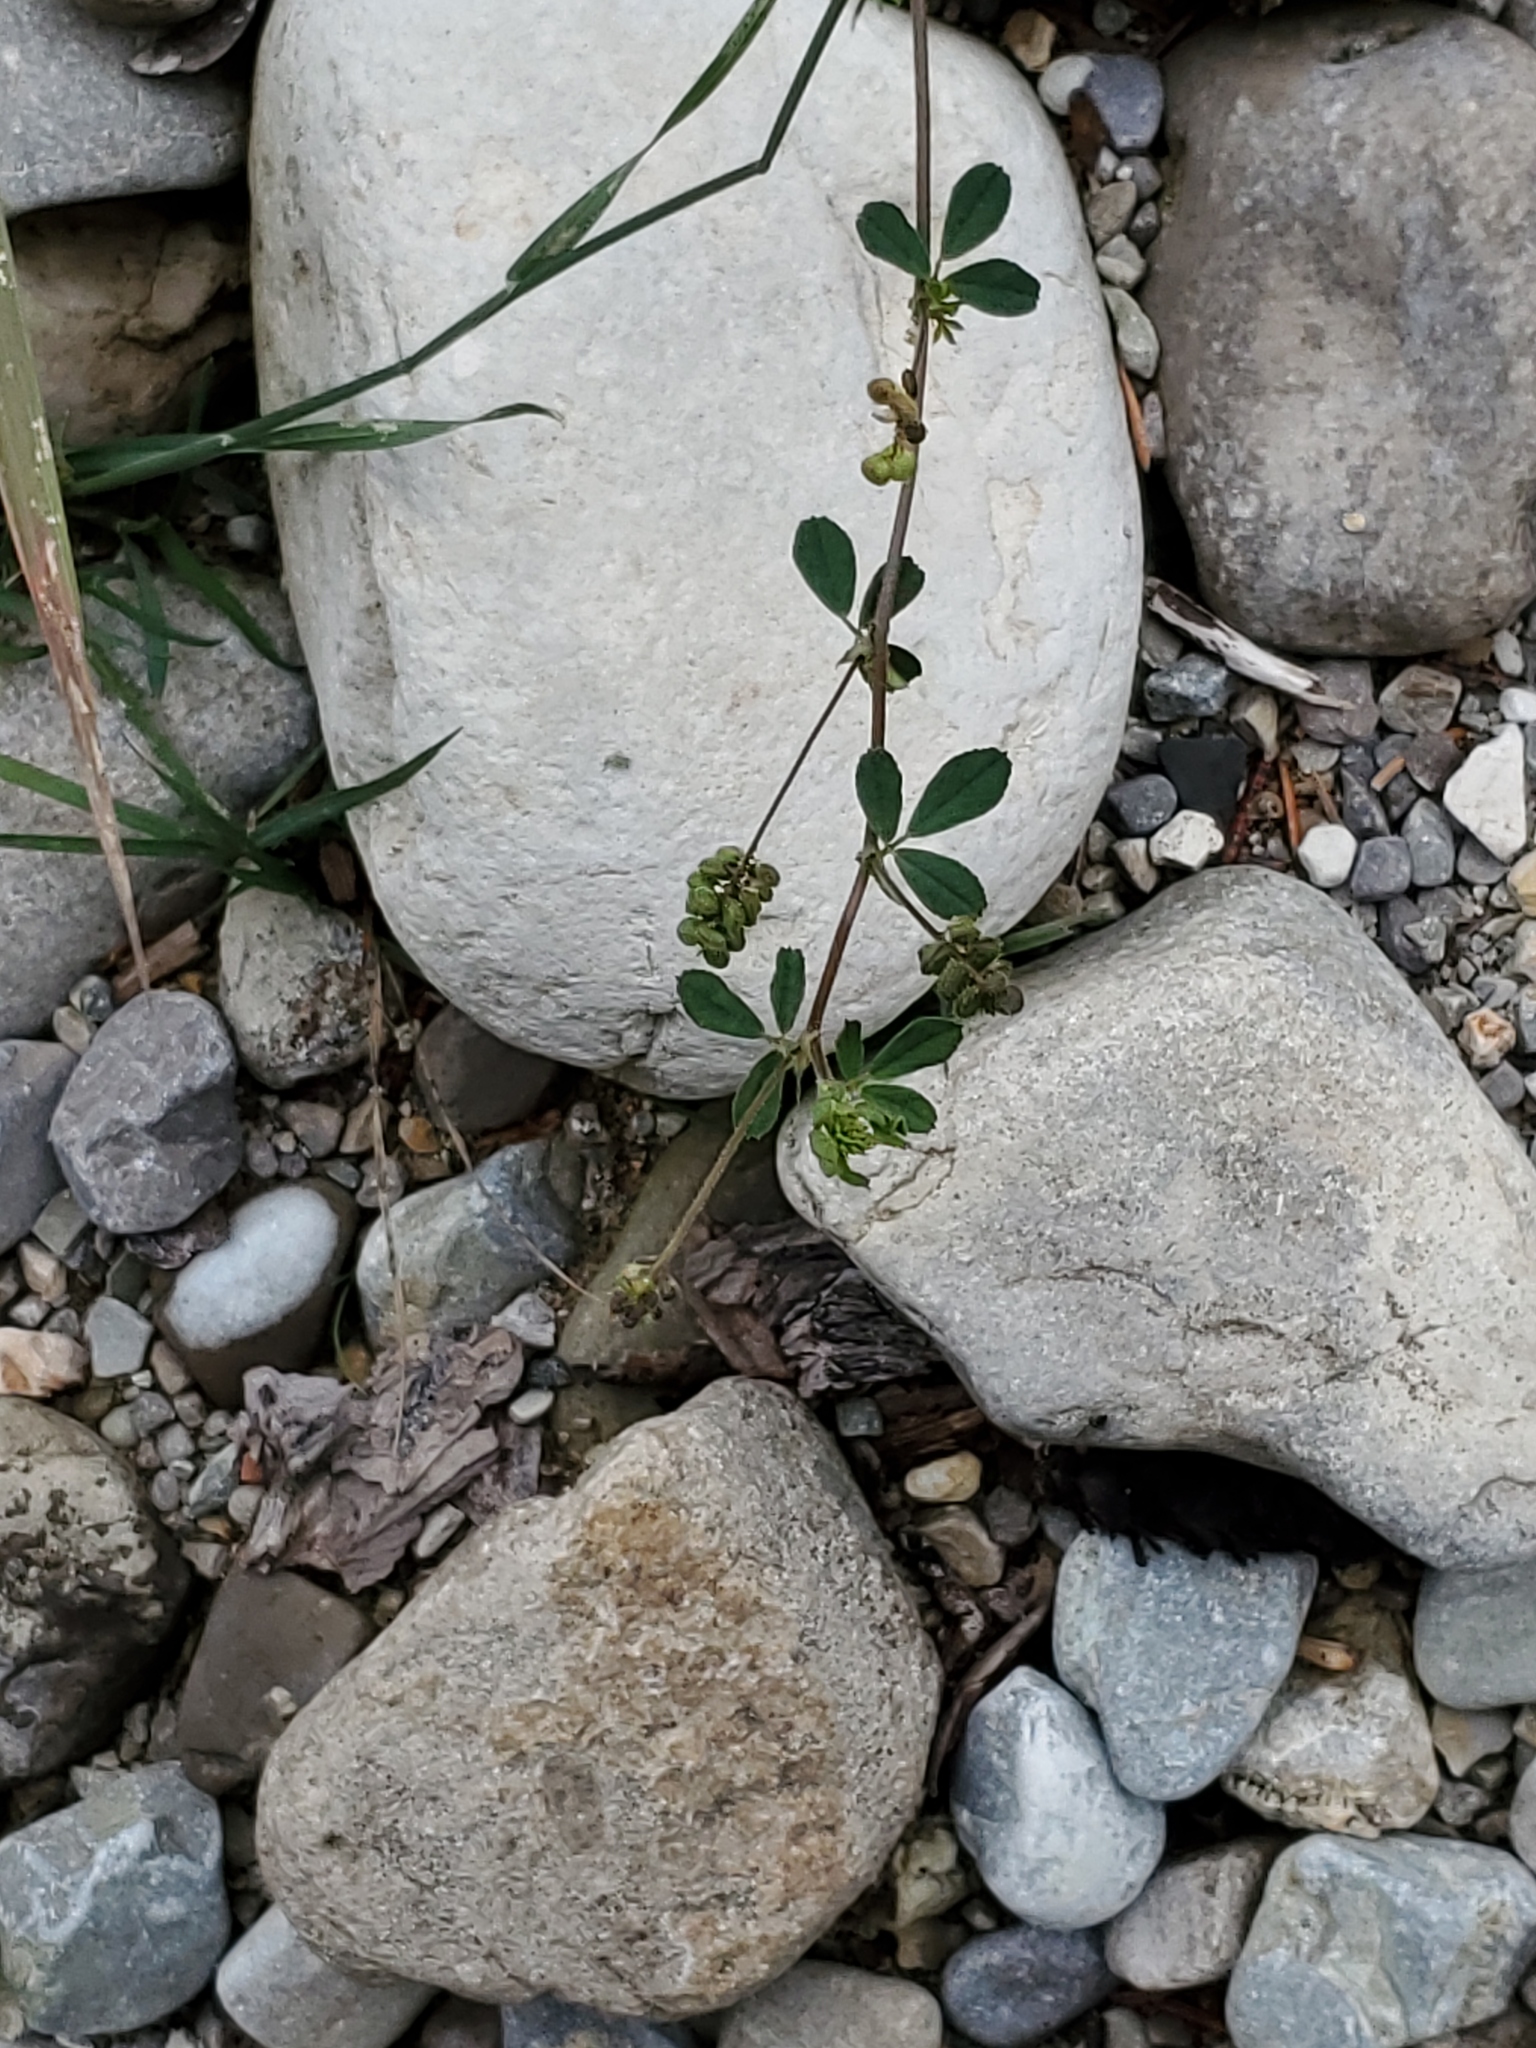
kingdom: Plantae
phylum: Tracheophyta
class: Magnoliopsida
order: Fabales
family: Fabaceae
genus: Medicago
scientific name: Medicago lupulina
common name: Black medick
